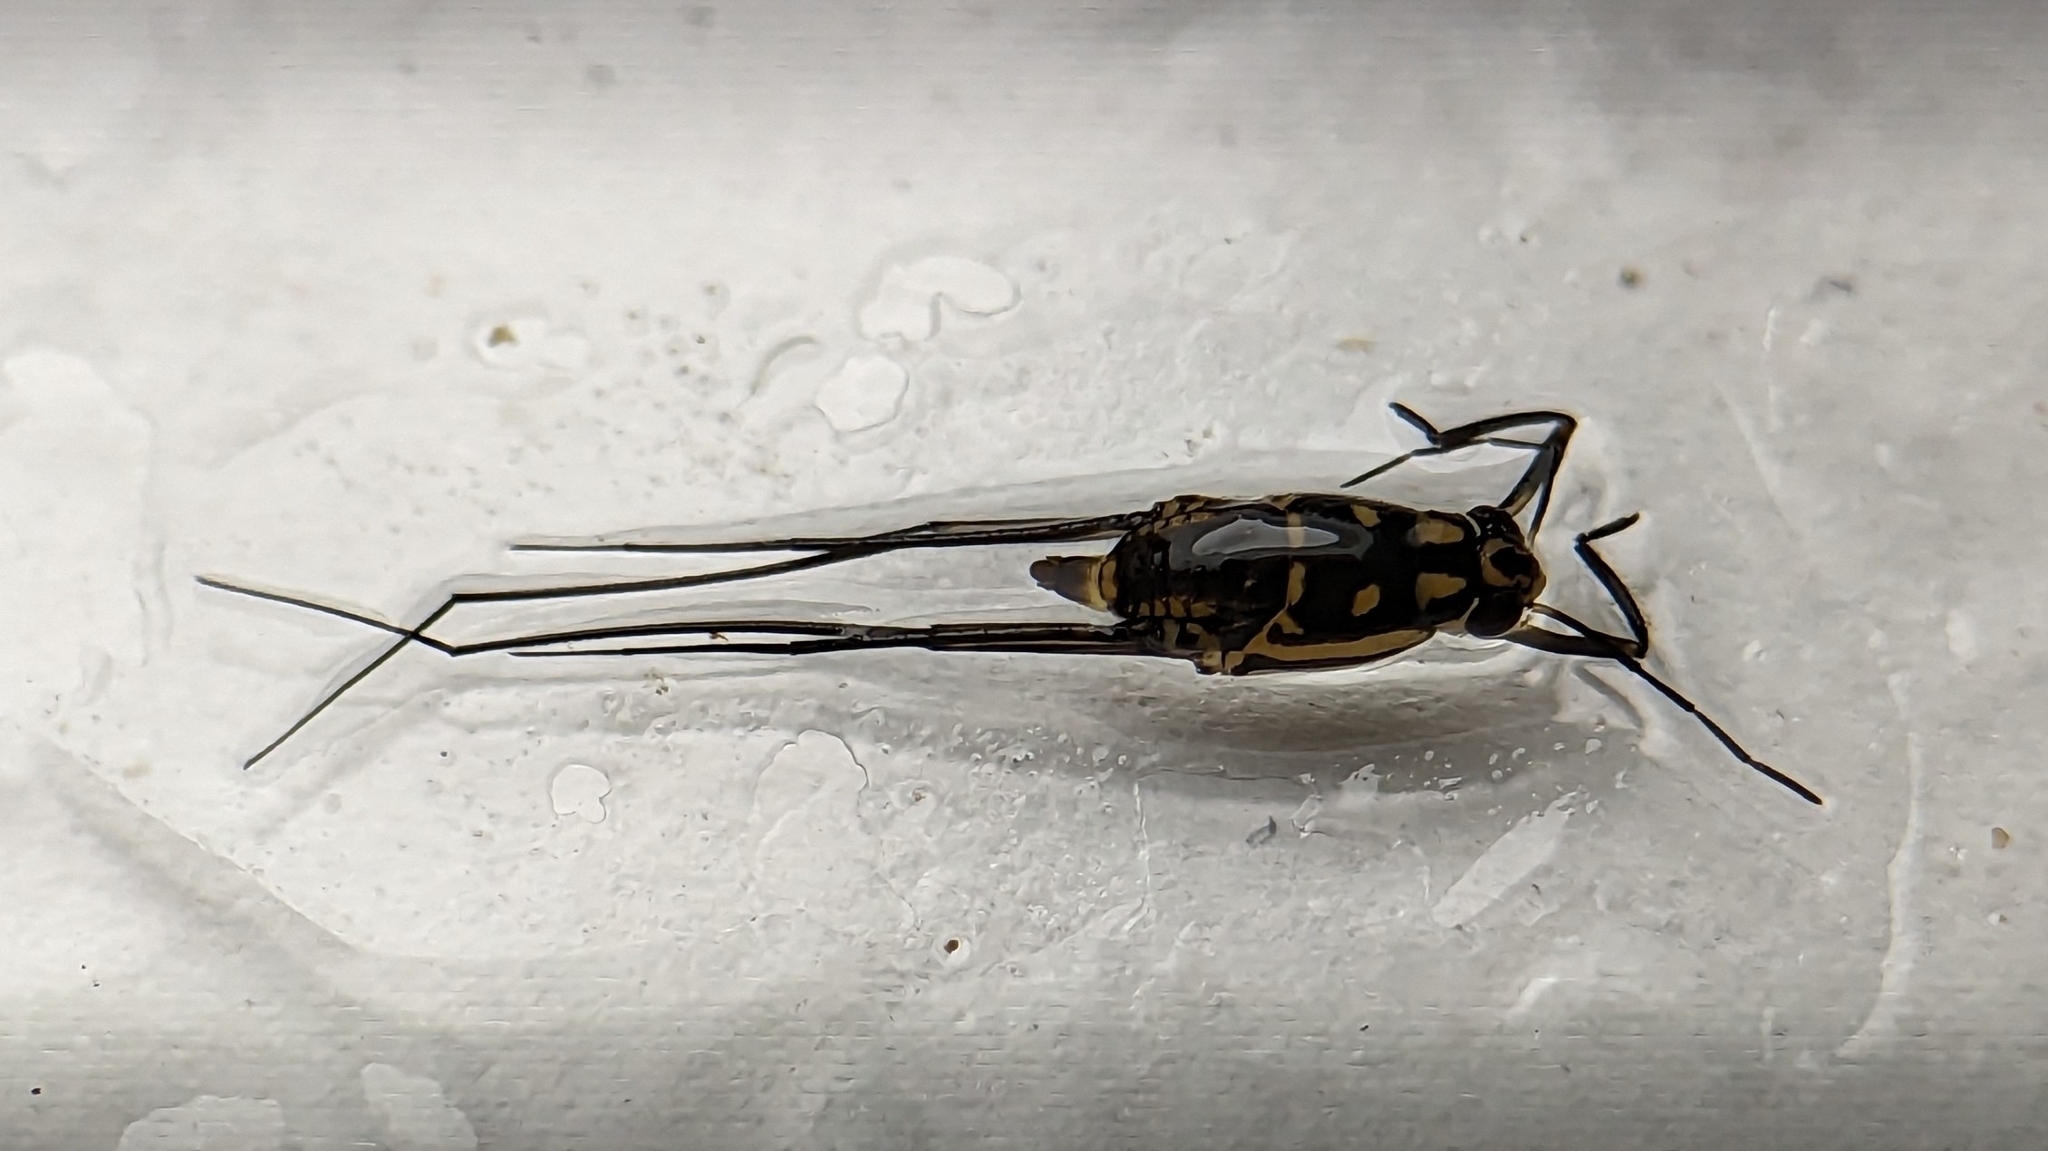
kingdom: Animalia
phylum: Arthropoda
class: Insecta
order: Hemiptera
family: Gerridae
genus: Trepobates
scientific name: Trepobates
